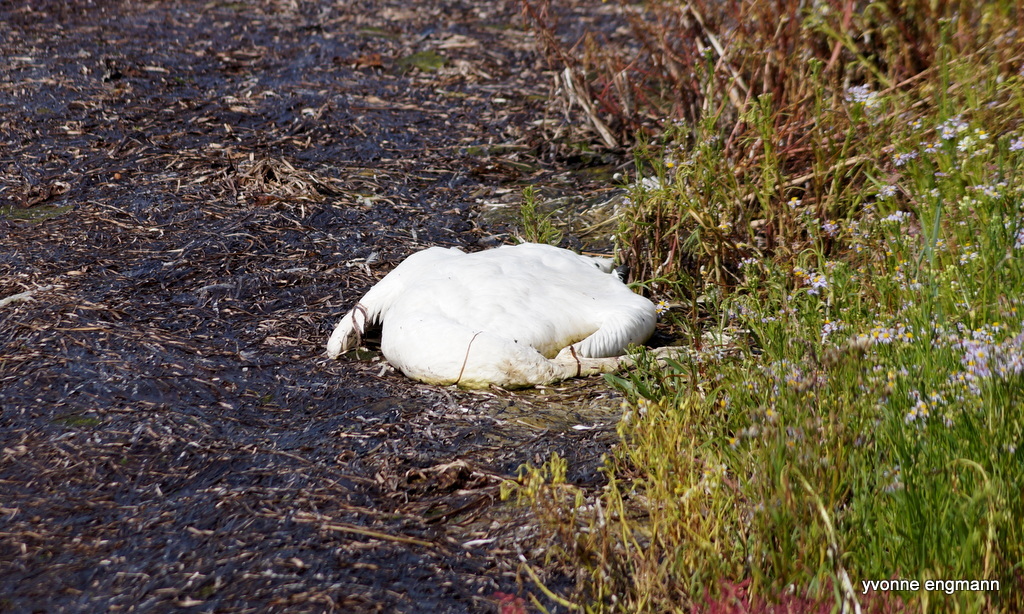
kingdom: Animalia
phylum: Chordata
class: Aves
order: Anseriformes
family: Anatidae
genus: Cygnus
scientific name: Cygnus olor
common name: Mute swan
